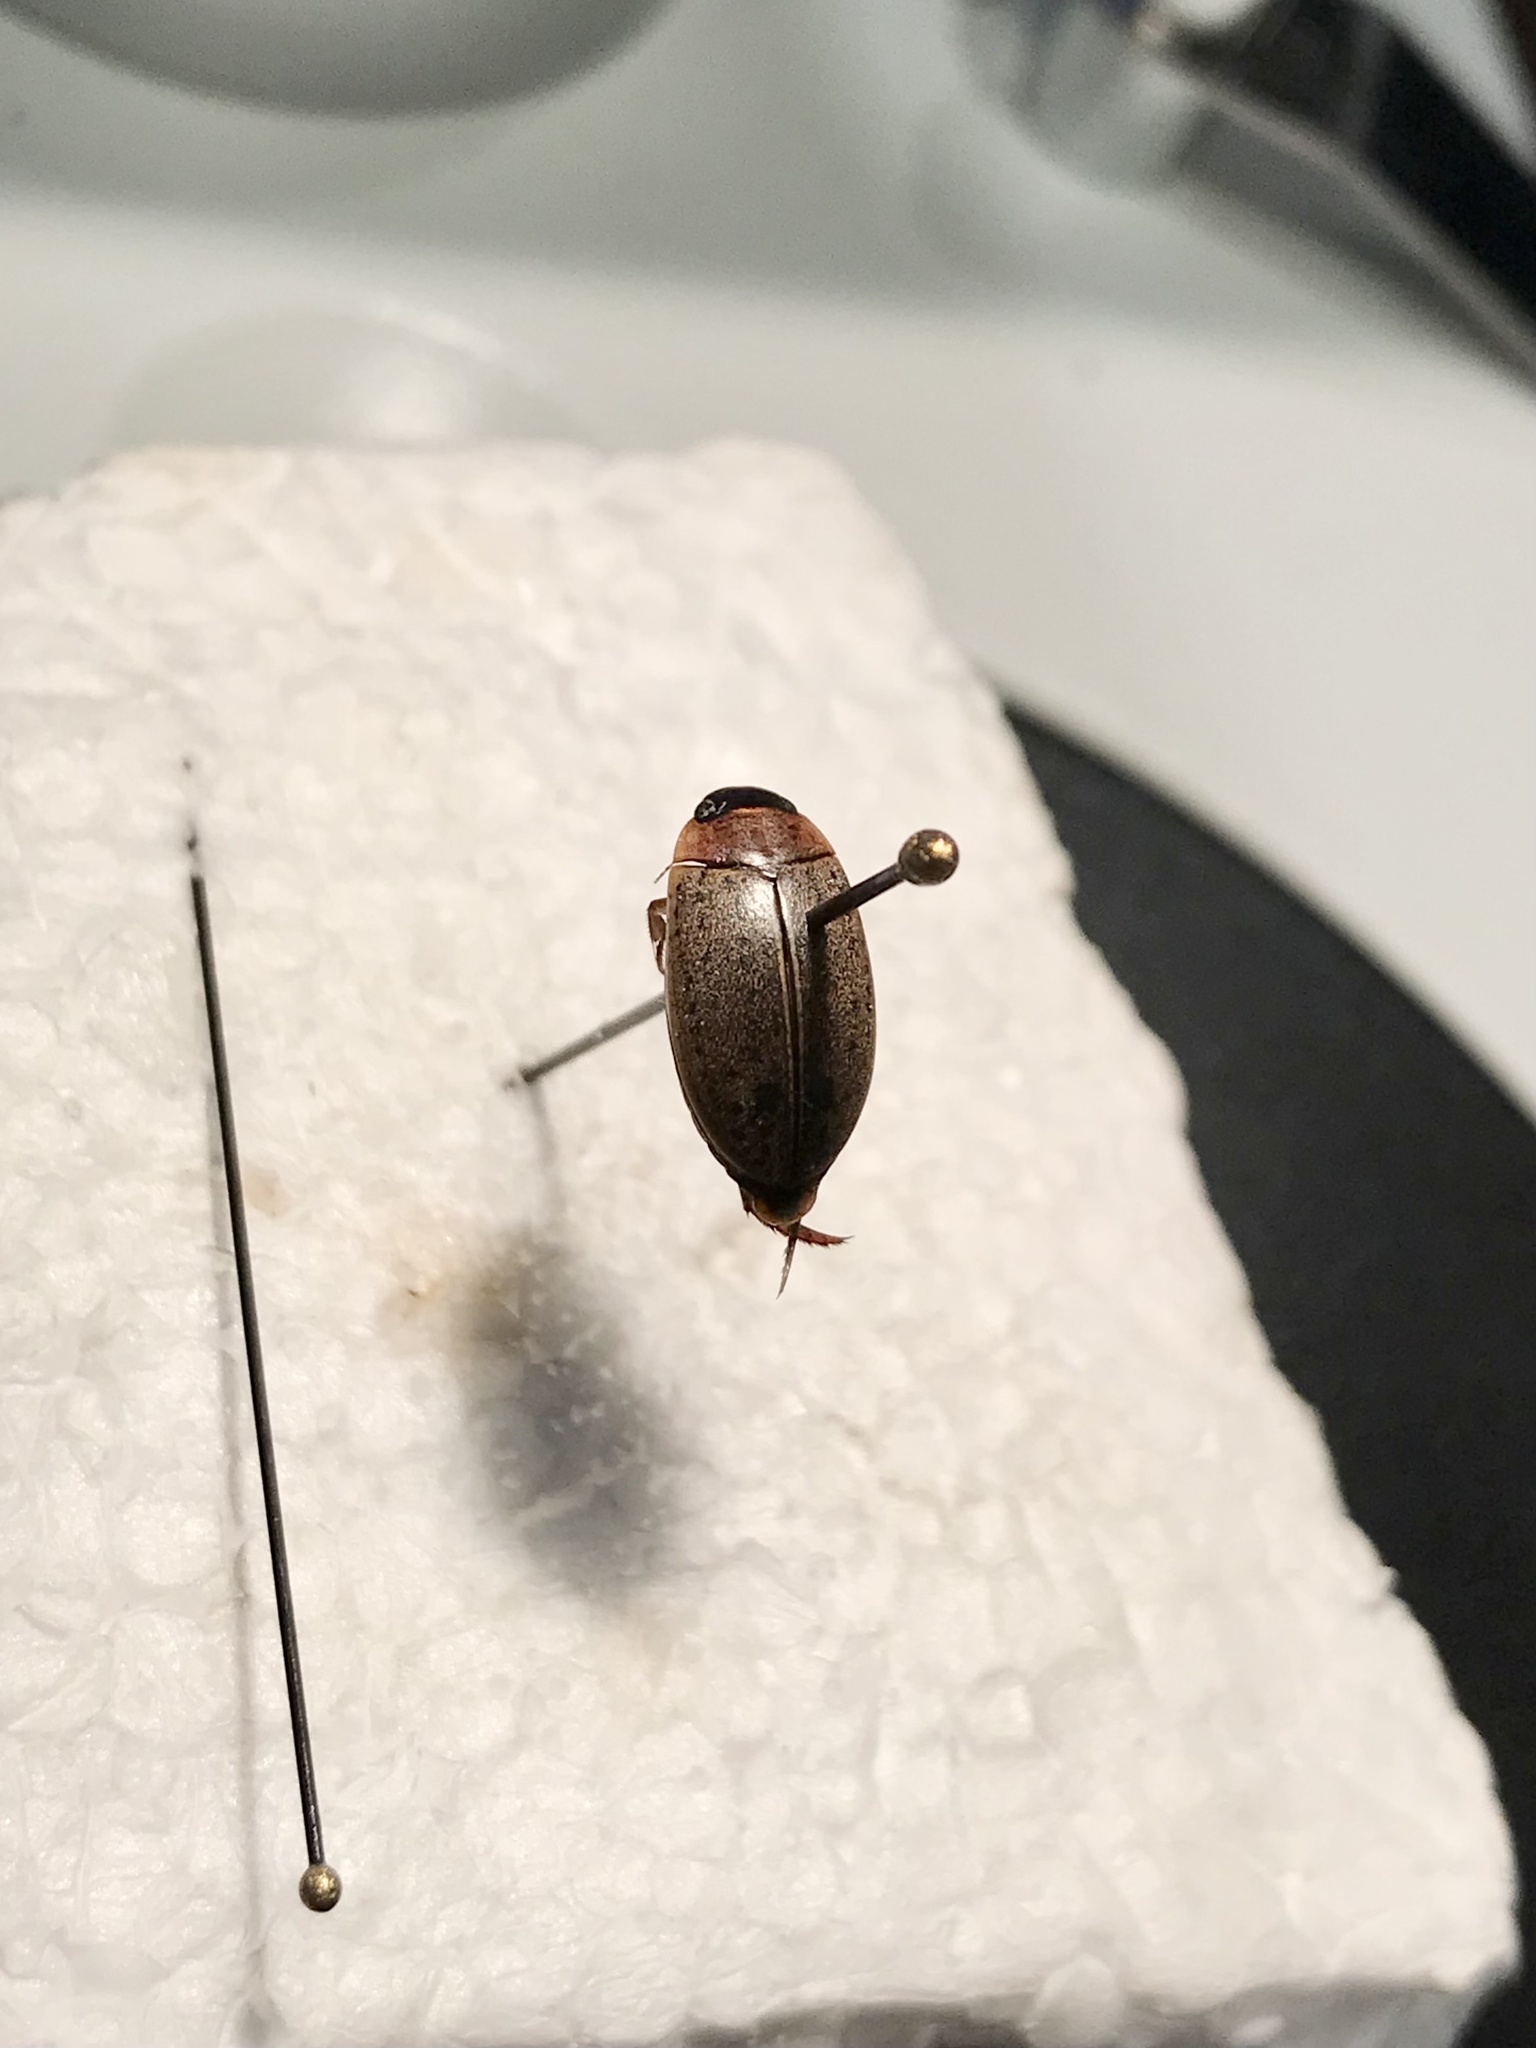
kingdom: Animalia
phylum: Arthropoda
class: Insecta
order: Coleoptera
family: Dytiscidae
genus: Rhantus
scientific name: Rhantus consimilis
